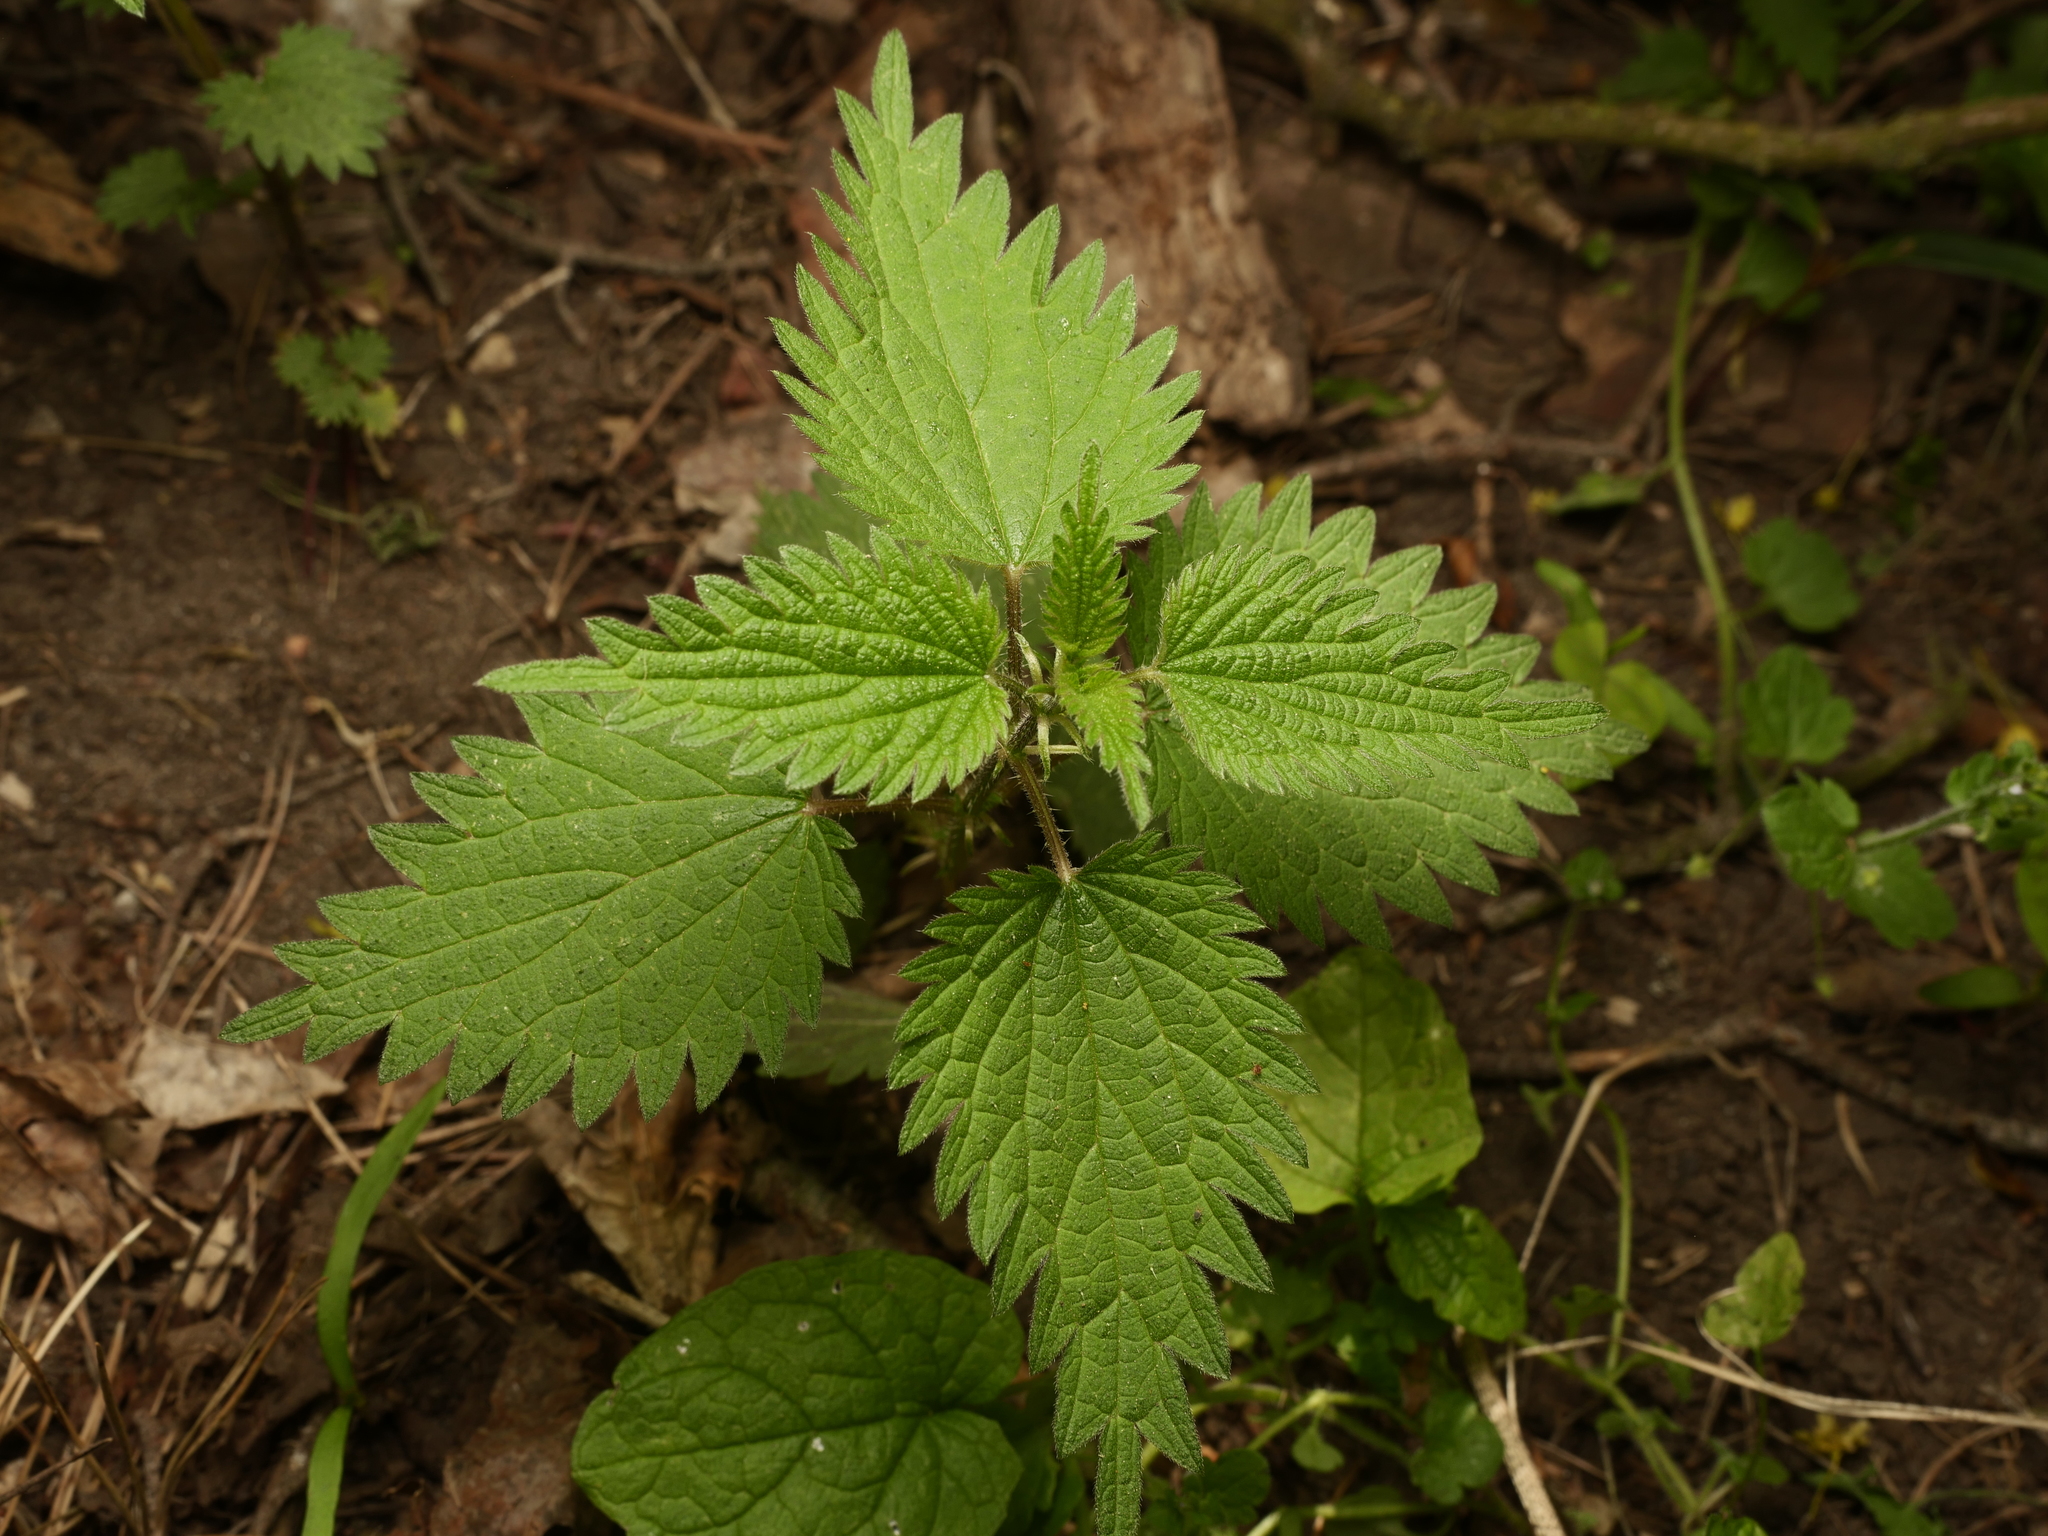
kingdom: Plantae
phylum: Tracheophyta
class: Magnoliopsida
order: Rosales
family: Urticaceae
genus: Urtica
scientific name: Urtica dioica
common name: Common nettle
